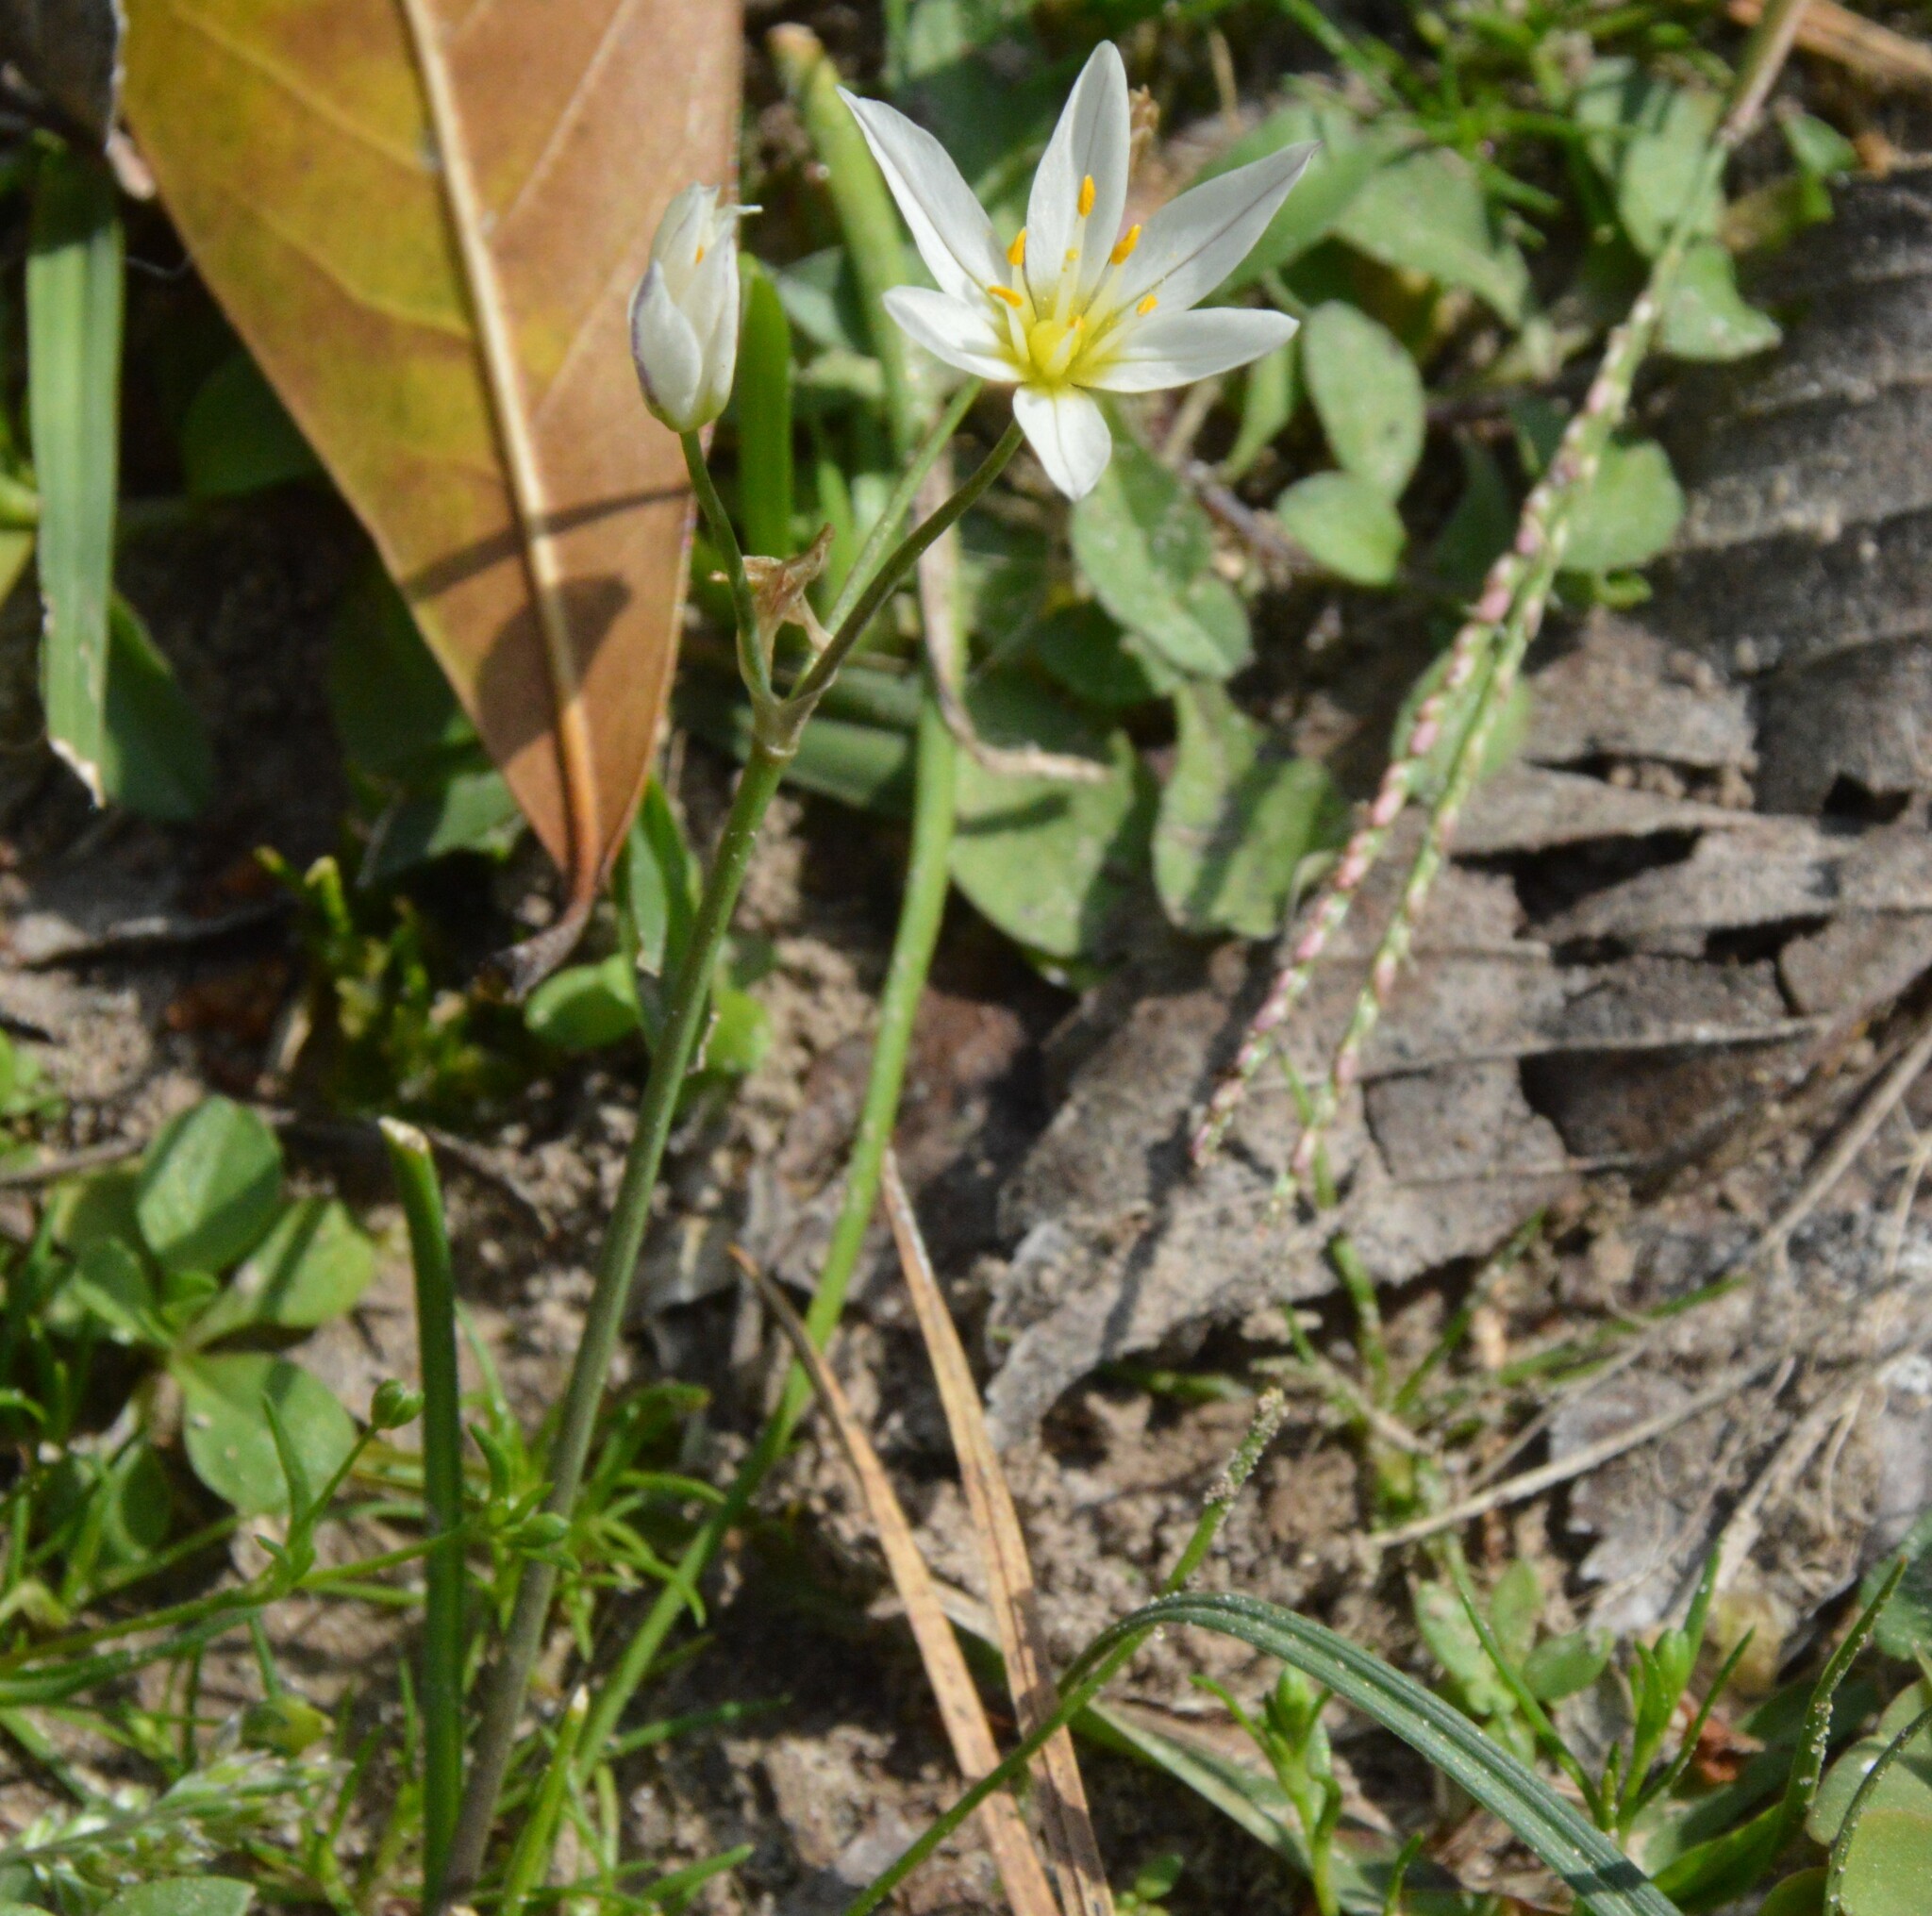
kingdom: Plantae
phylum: Tracheophyta
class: Liliopsida
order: Asparagales
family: Amaryllidaceae
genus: Nothoscordum
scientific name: Nothoscordum bivalve
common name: Crow-poison
